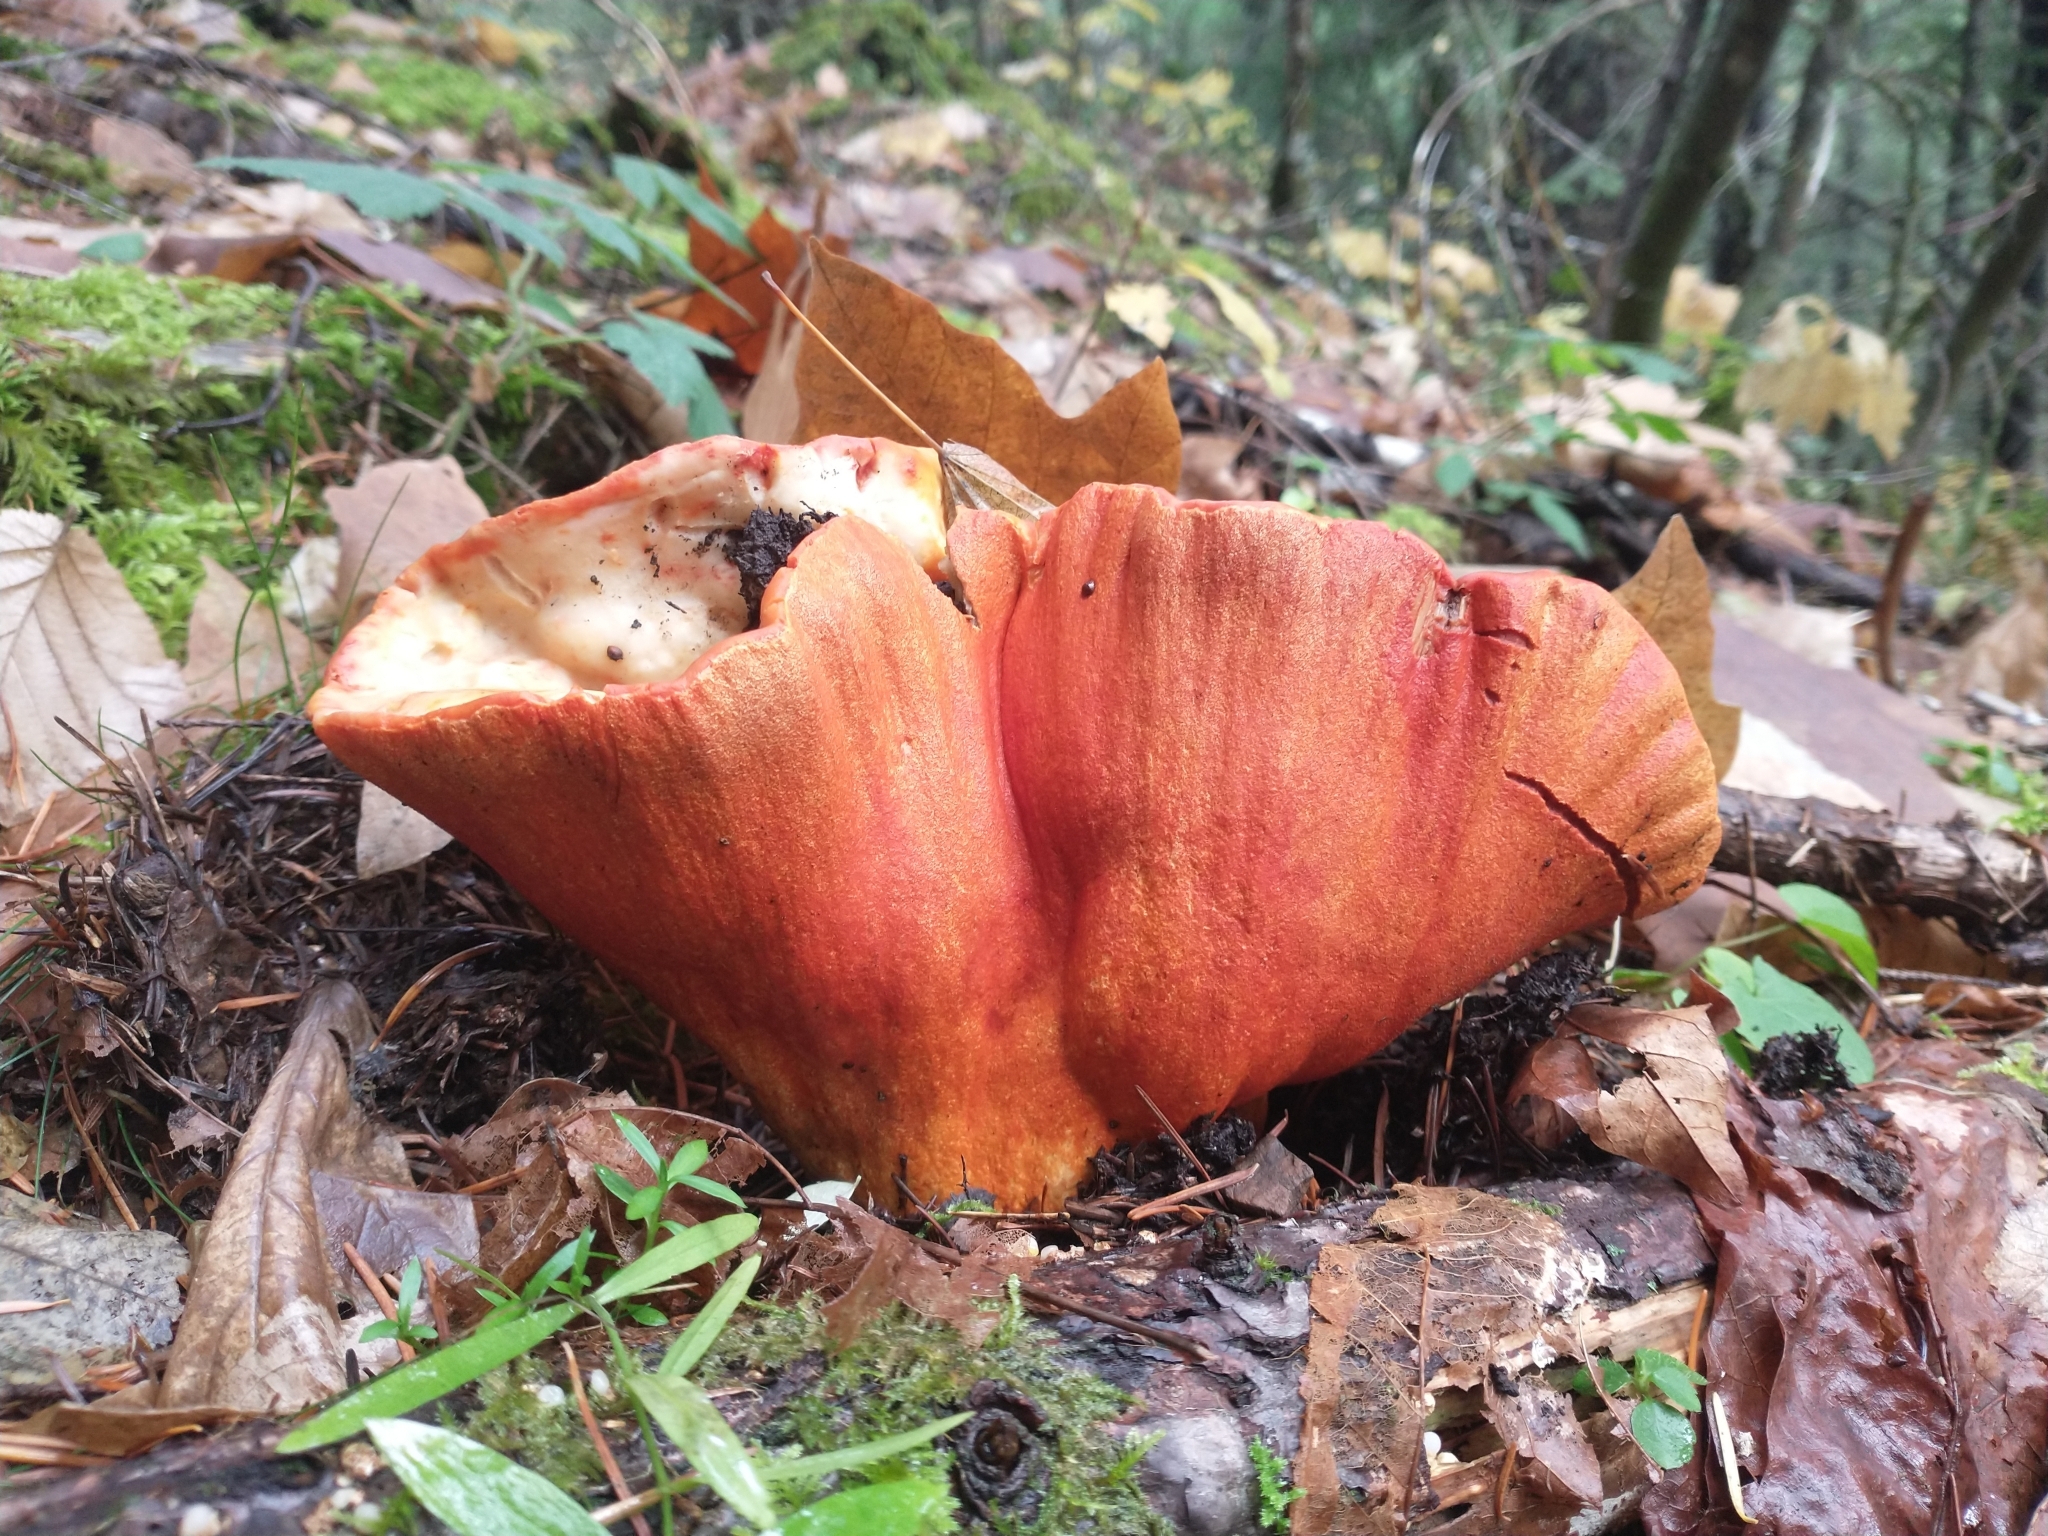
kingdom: Fungi
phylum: Ascomycota
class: Sordariomycetes
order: Hypocreales
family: Hypocreaceae
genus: Hypomyces
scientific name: Hypomyces lactifluorum
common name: Lobster mushroom
